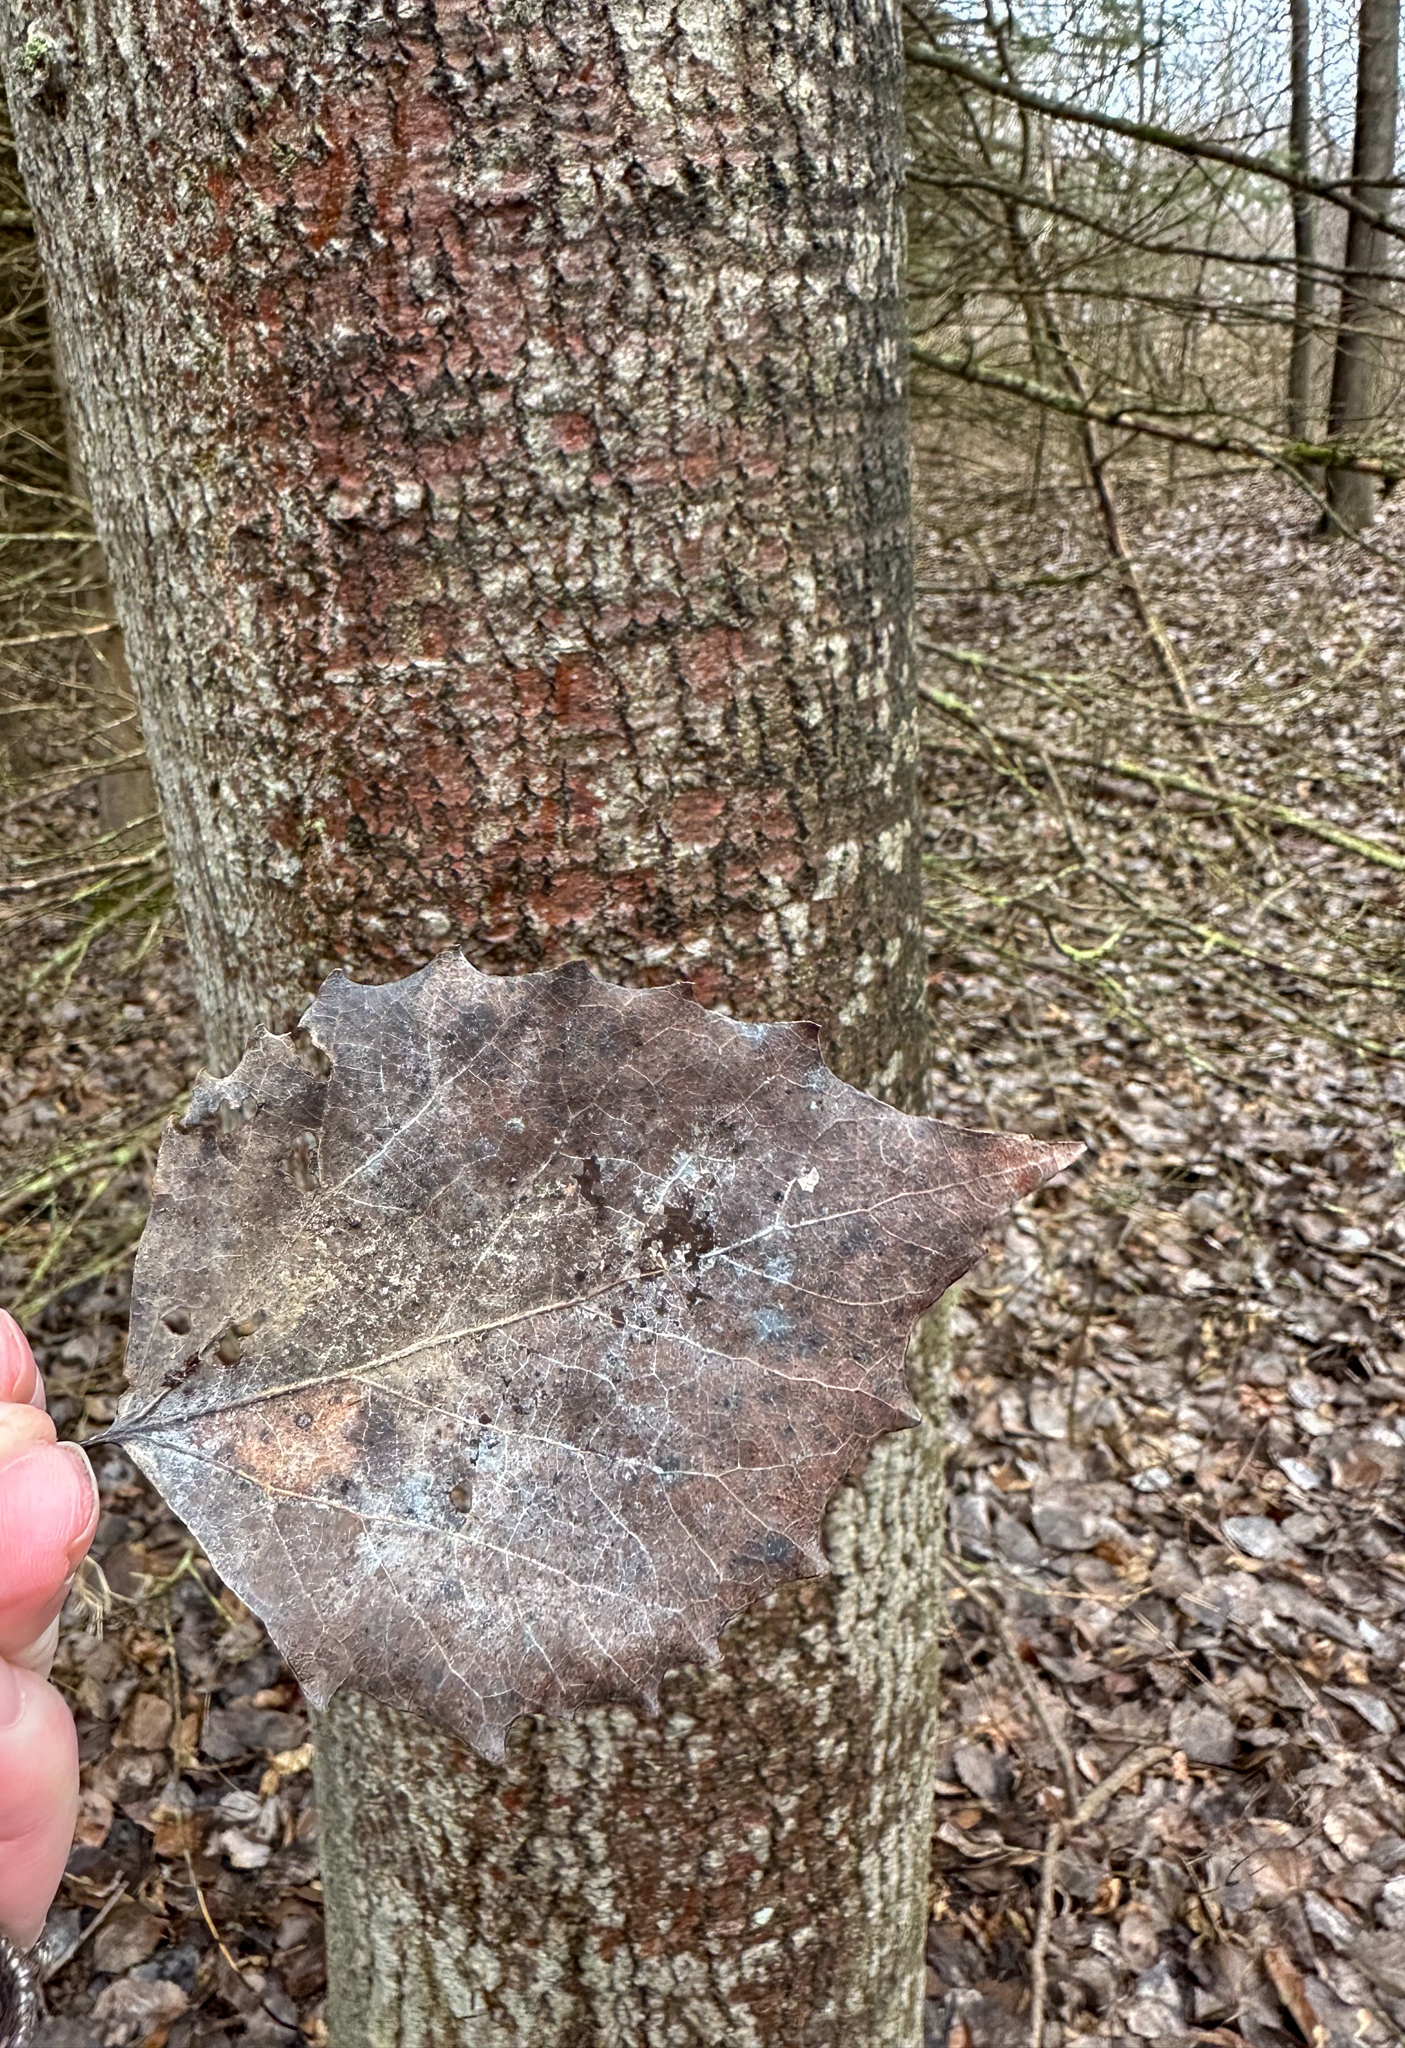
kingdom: Plantae
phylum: Tracheophyta
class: Magnoliopsida
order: Malpighiales
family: Salicaceae
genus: Populus
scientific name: Populus grandidentata
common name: Bigtooth aspen
